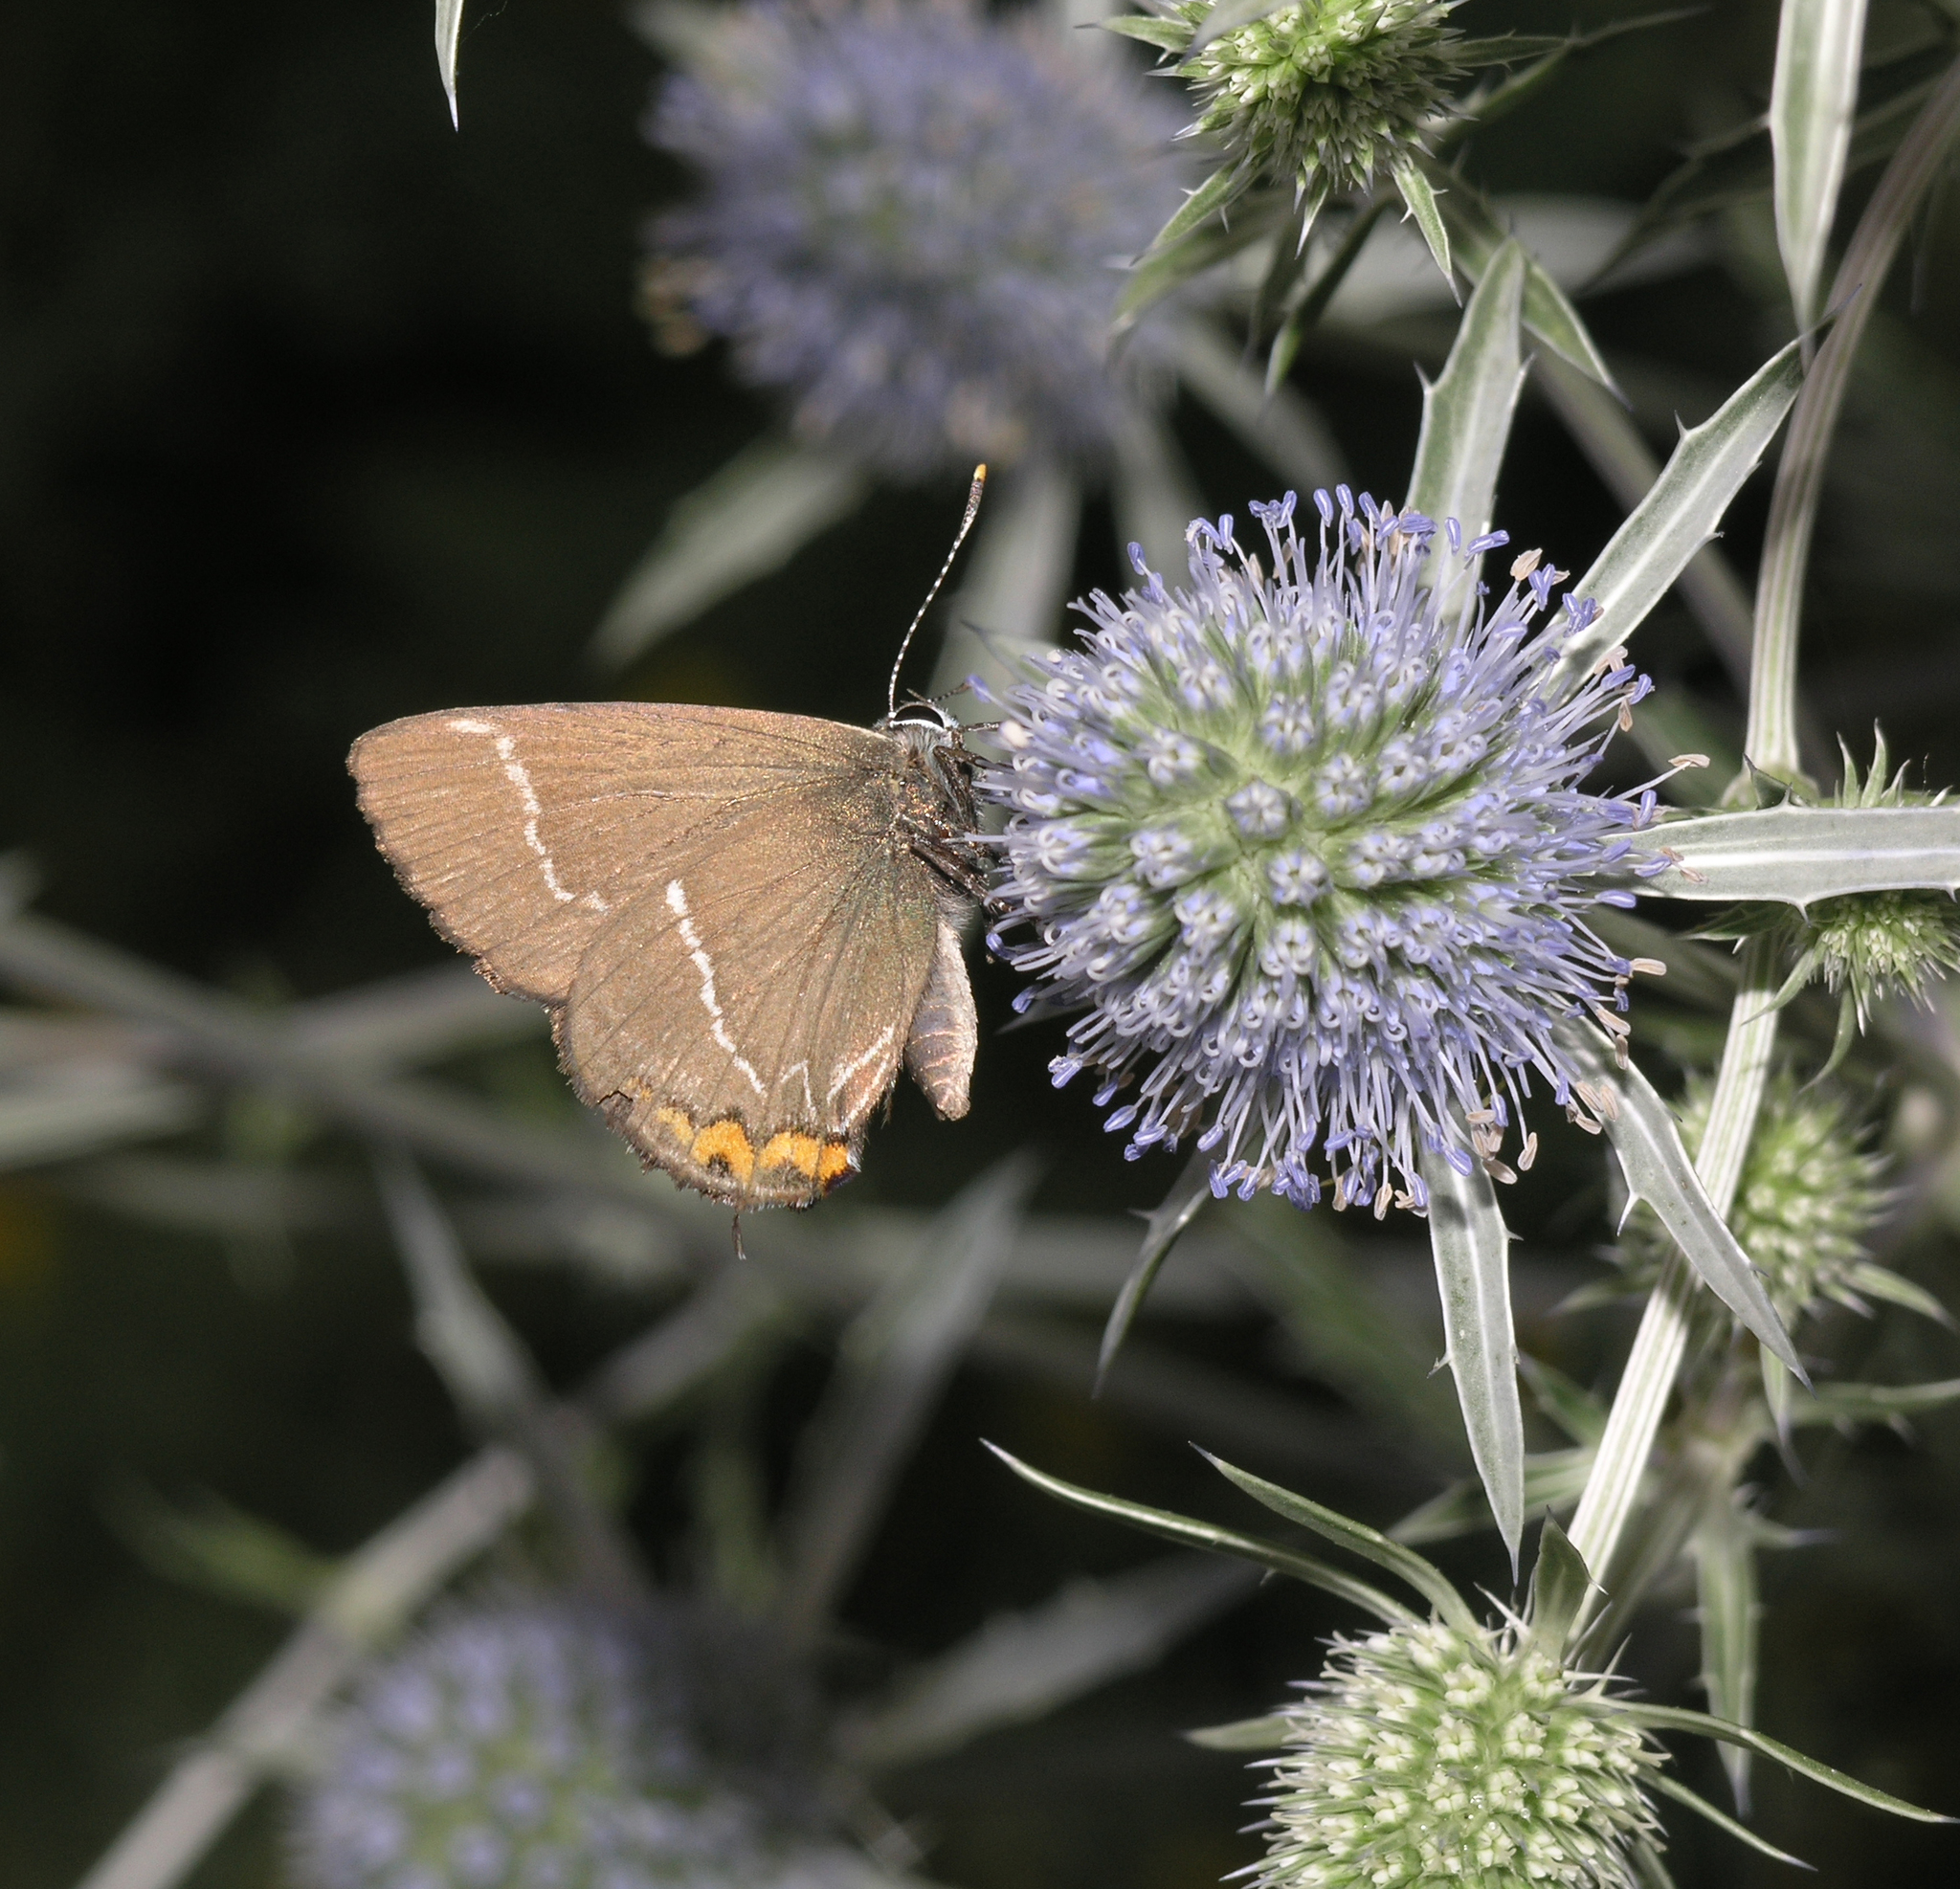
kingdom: Plantae
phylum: Tracheophyta
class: Magnoliopsida
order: Apiales
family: Apiaceae
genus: Eryngium
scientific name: Eryngium planum
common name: Blue eryngo
